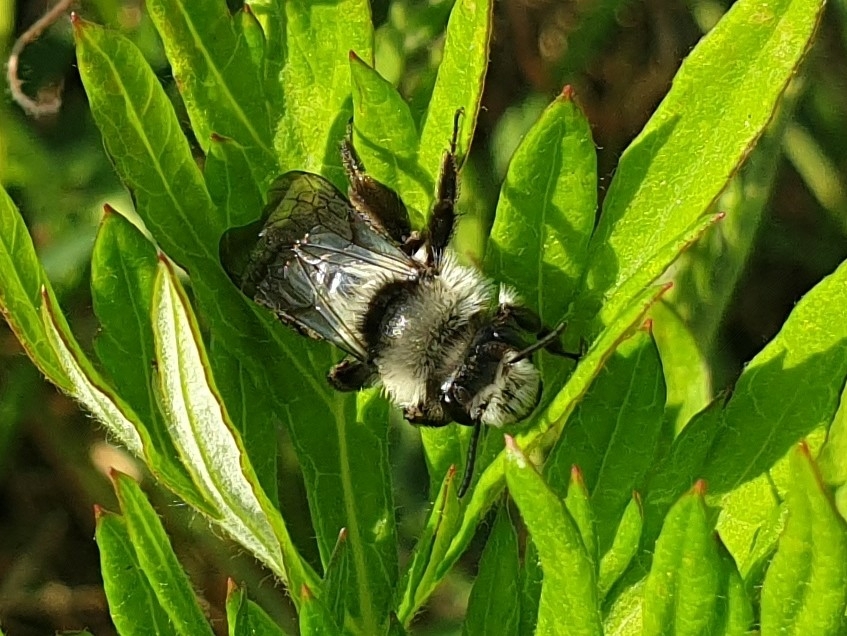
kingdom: Animalia
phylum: Arthropoda
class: Insecta
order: Hymenoptera
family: Andrenidae
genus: Andrena
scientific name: Andrena cineraria
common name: Ashy mining bee
